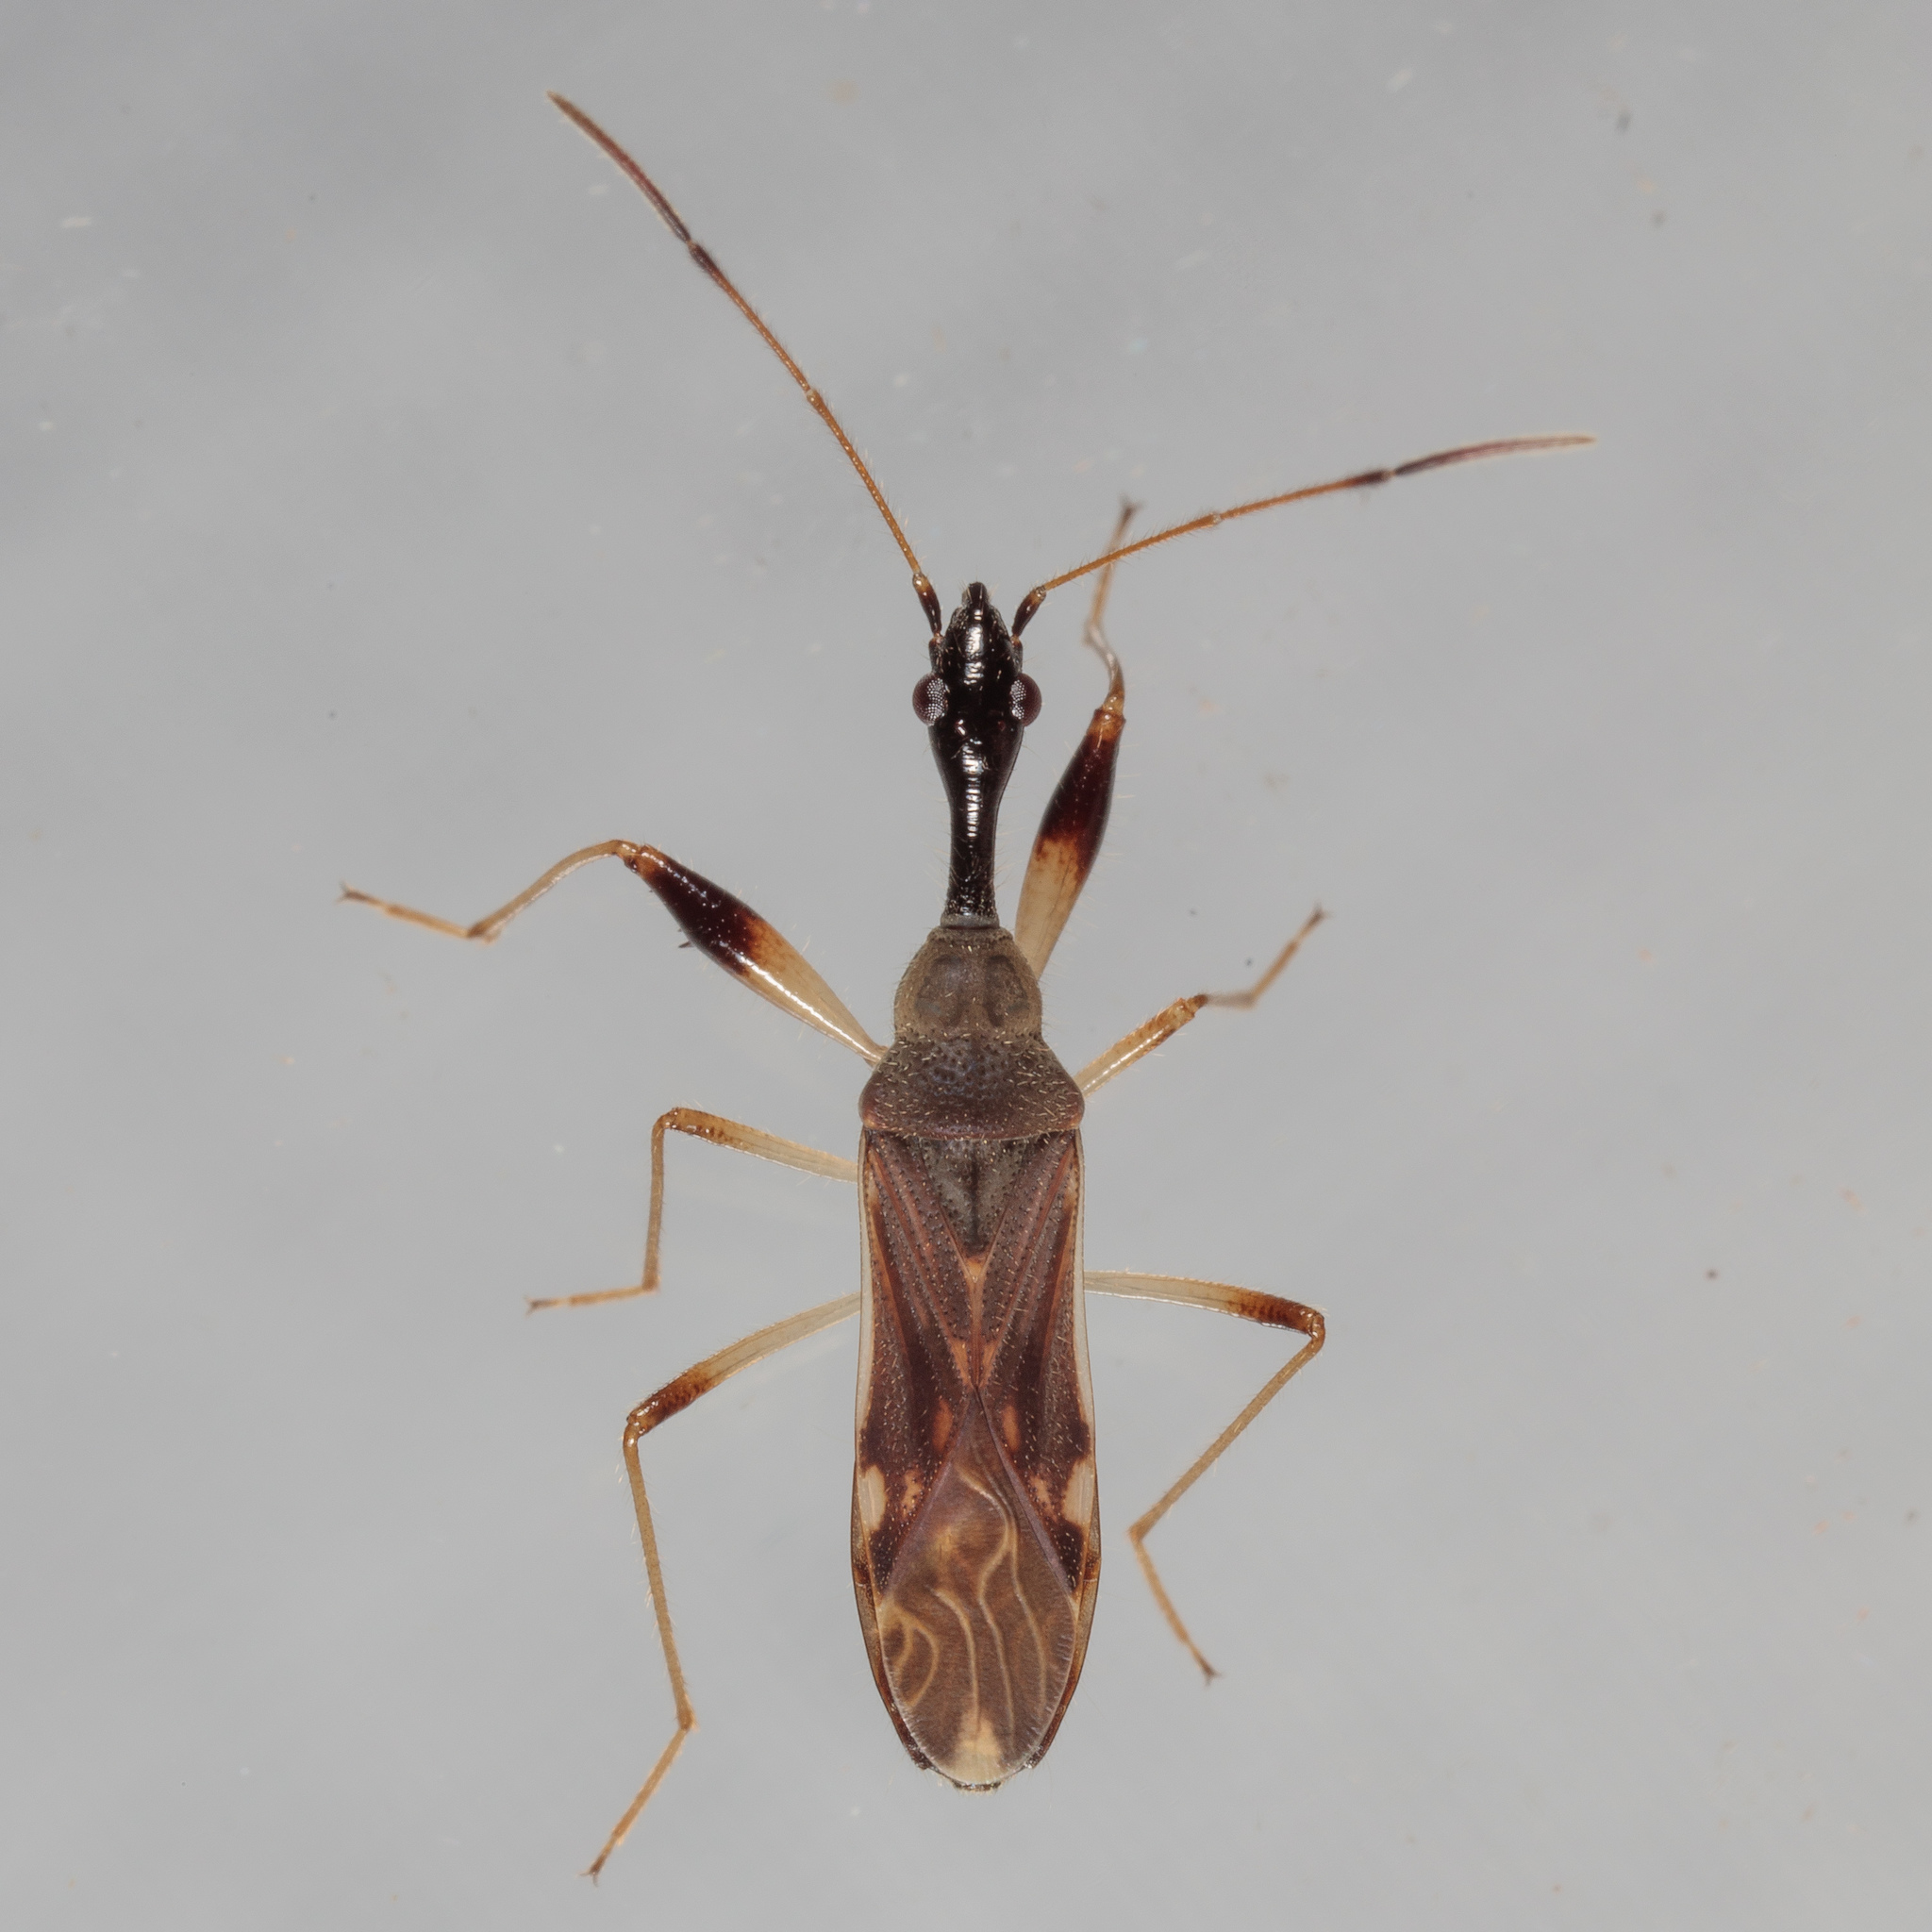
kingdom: Animalia
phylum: Arthropoda
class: Insecta
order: Hemiptera
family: Rhyparochromidae
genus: Myodocha
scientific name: Myodocha serripes
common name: Long-necked seed bug
